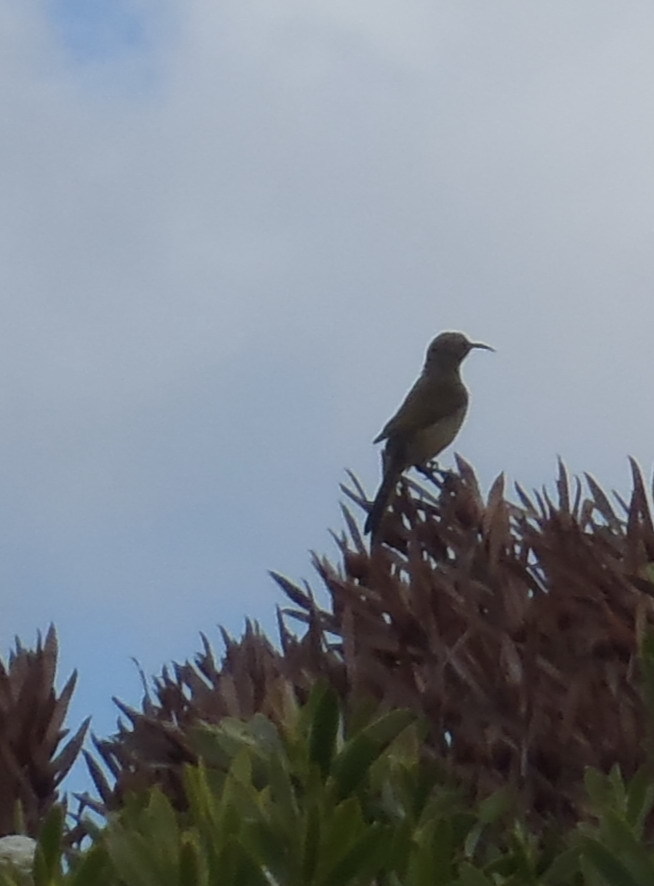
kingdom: Animalia
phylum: Chordata
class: Aves
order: Passeriformes
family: Nectariniidae
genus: Nectarinia
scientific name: Nectarinia famosa
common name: Malachite sunbird
